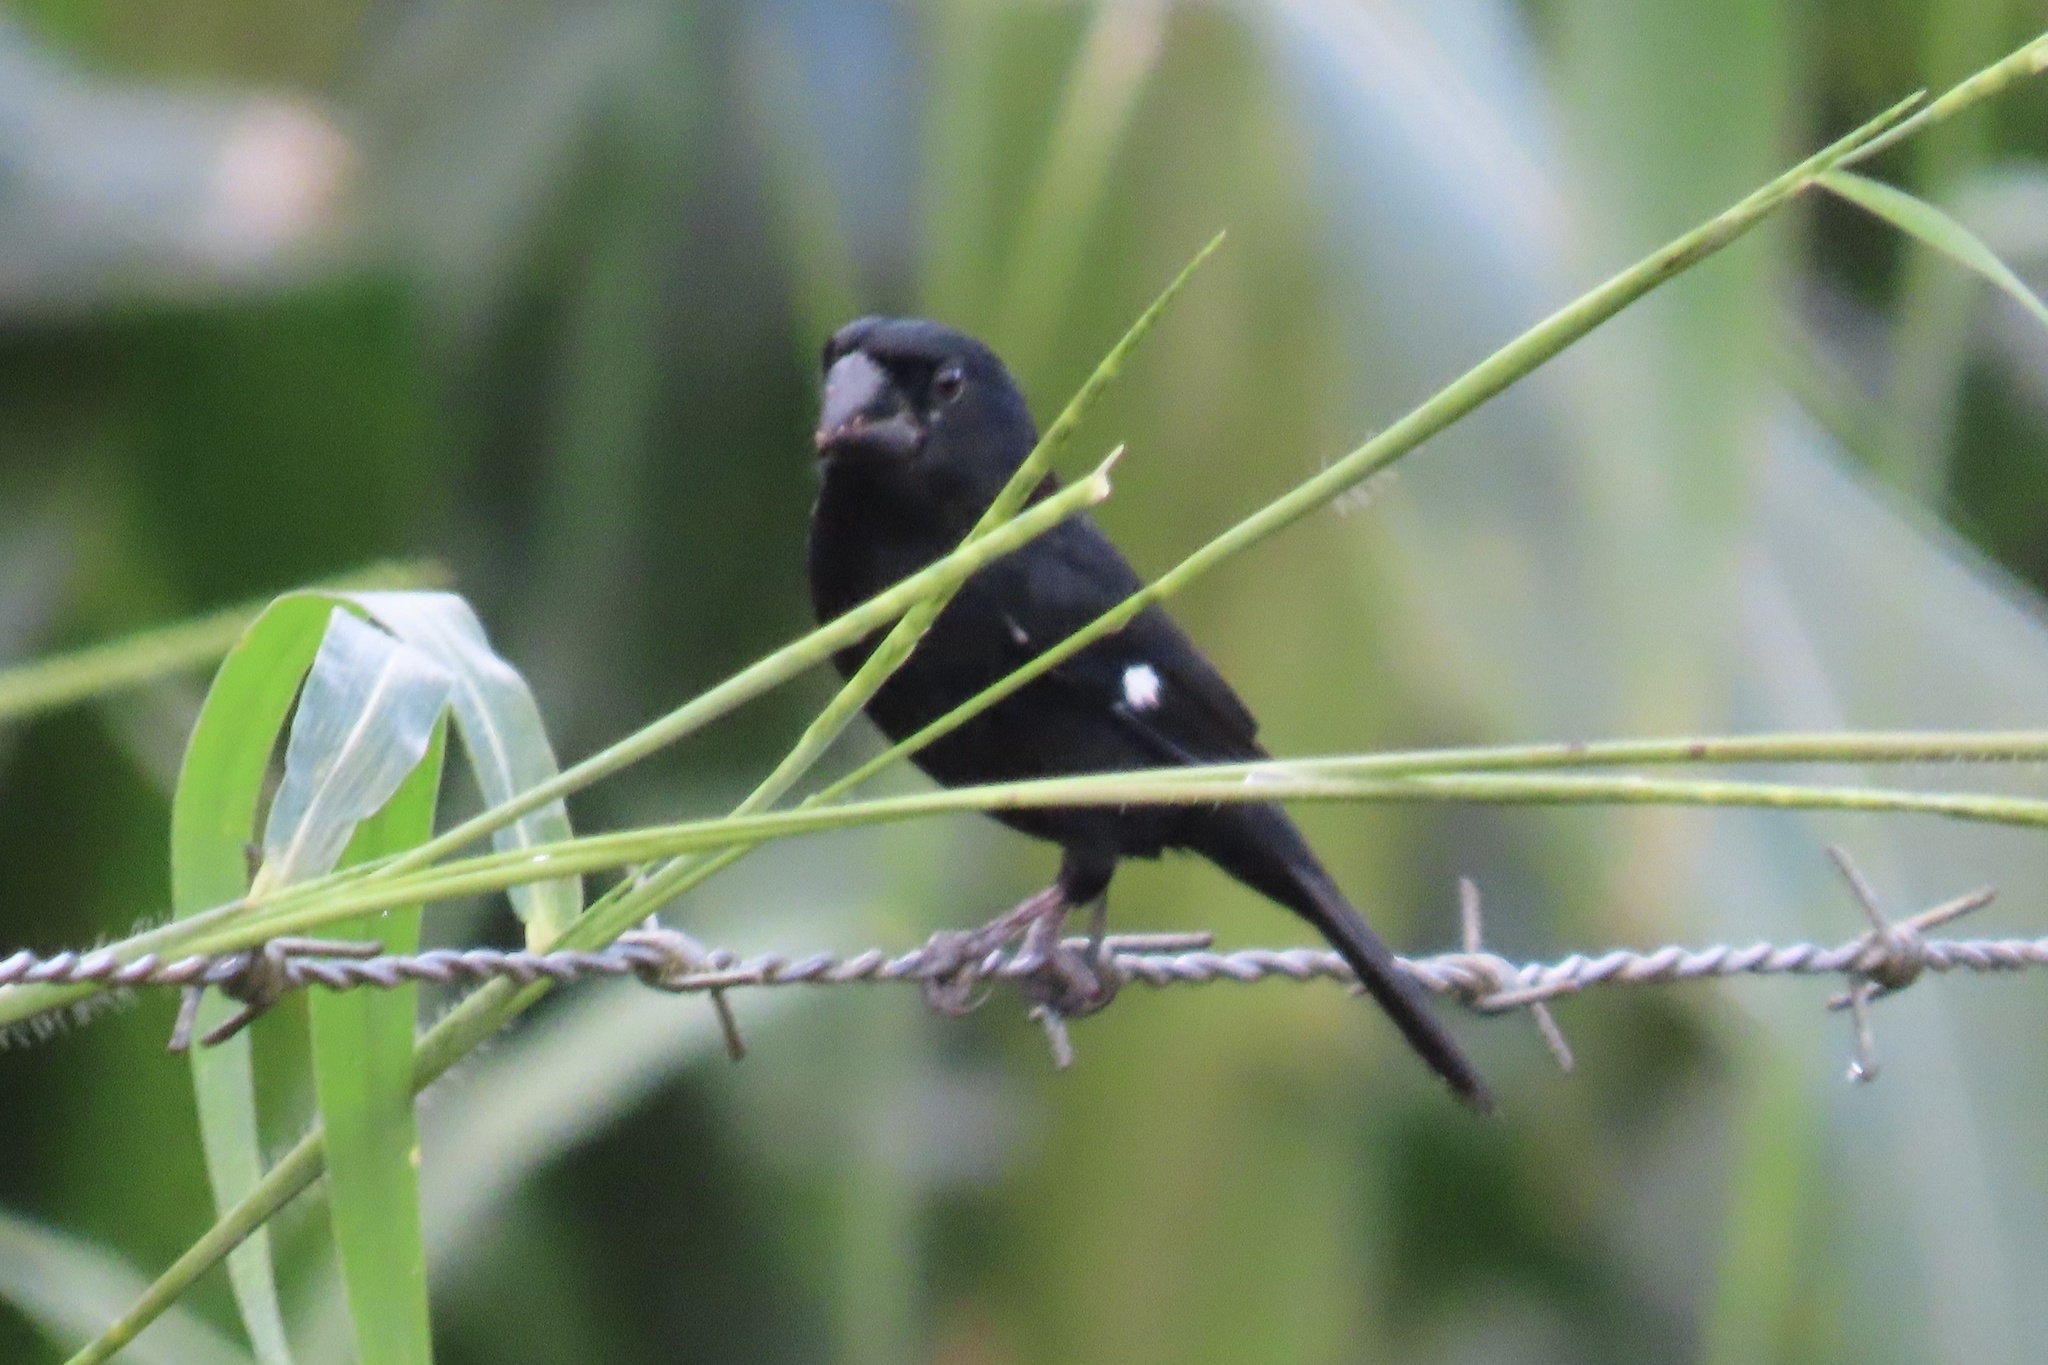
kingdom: Animalia
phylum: Chordata
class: Aves
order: Passeriformes
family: Thraupidae
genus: Sporophila
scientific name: Sporophila funerea
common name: Thick-billed seed-finch
